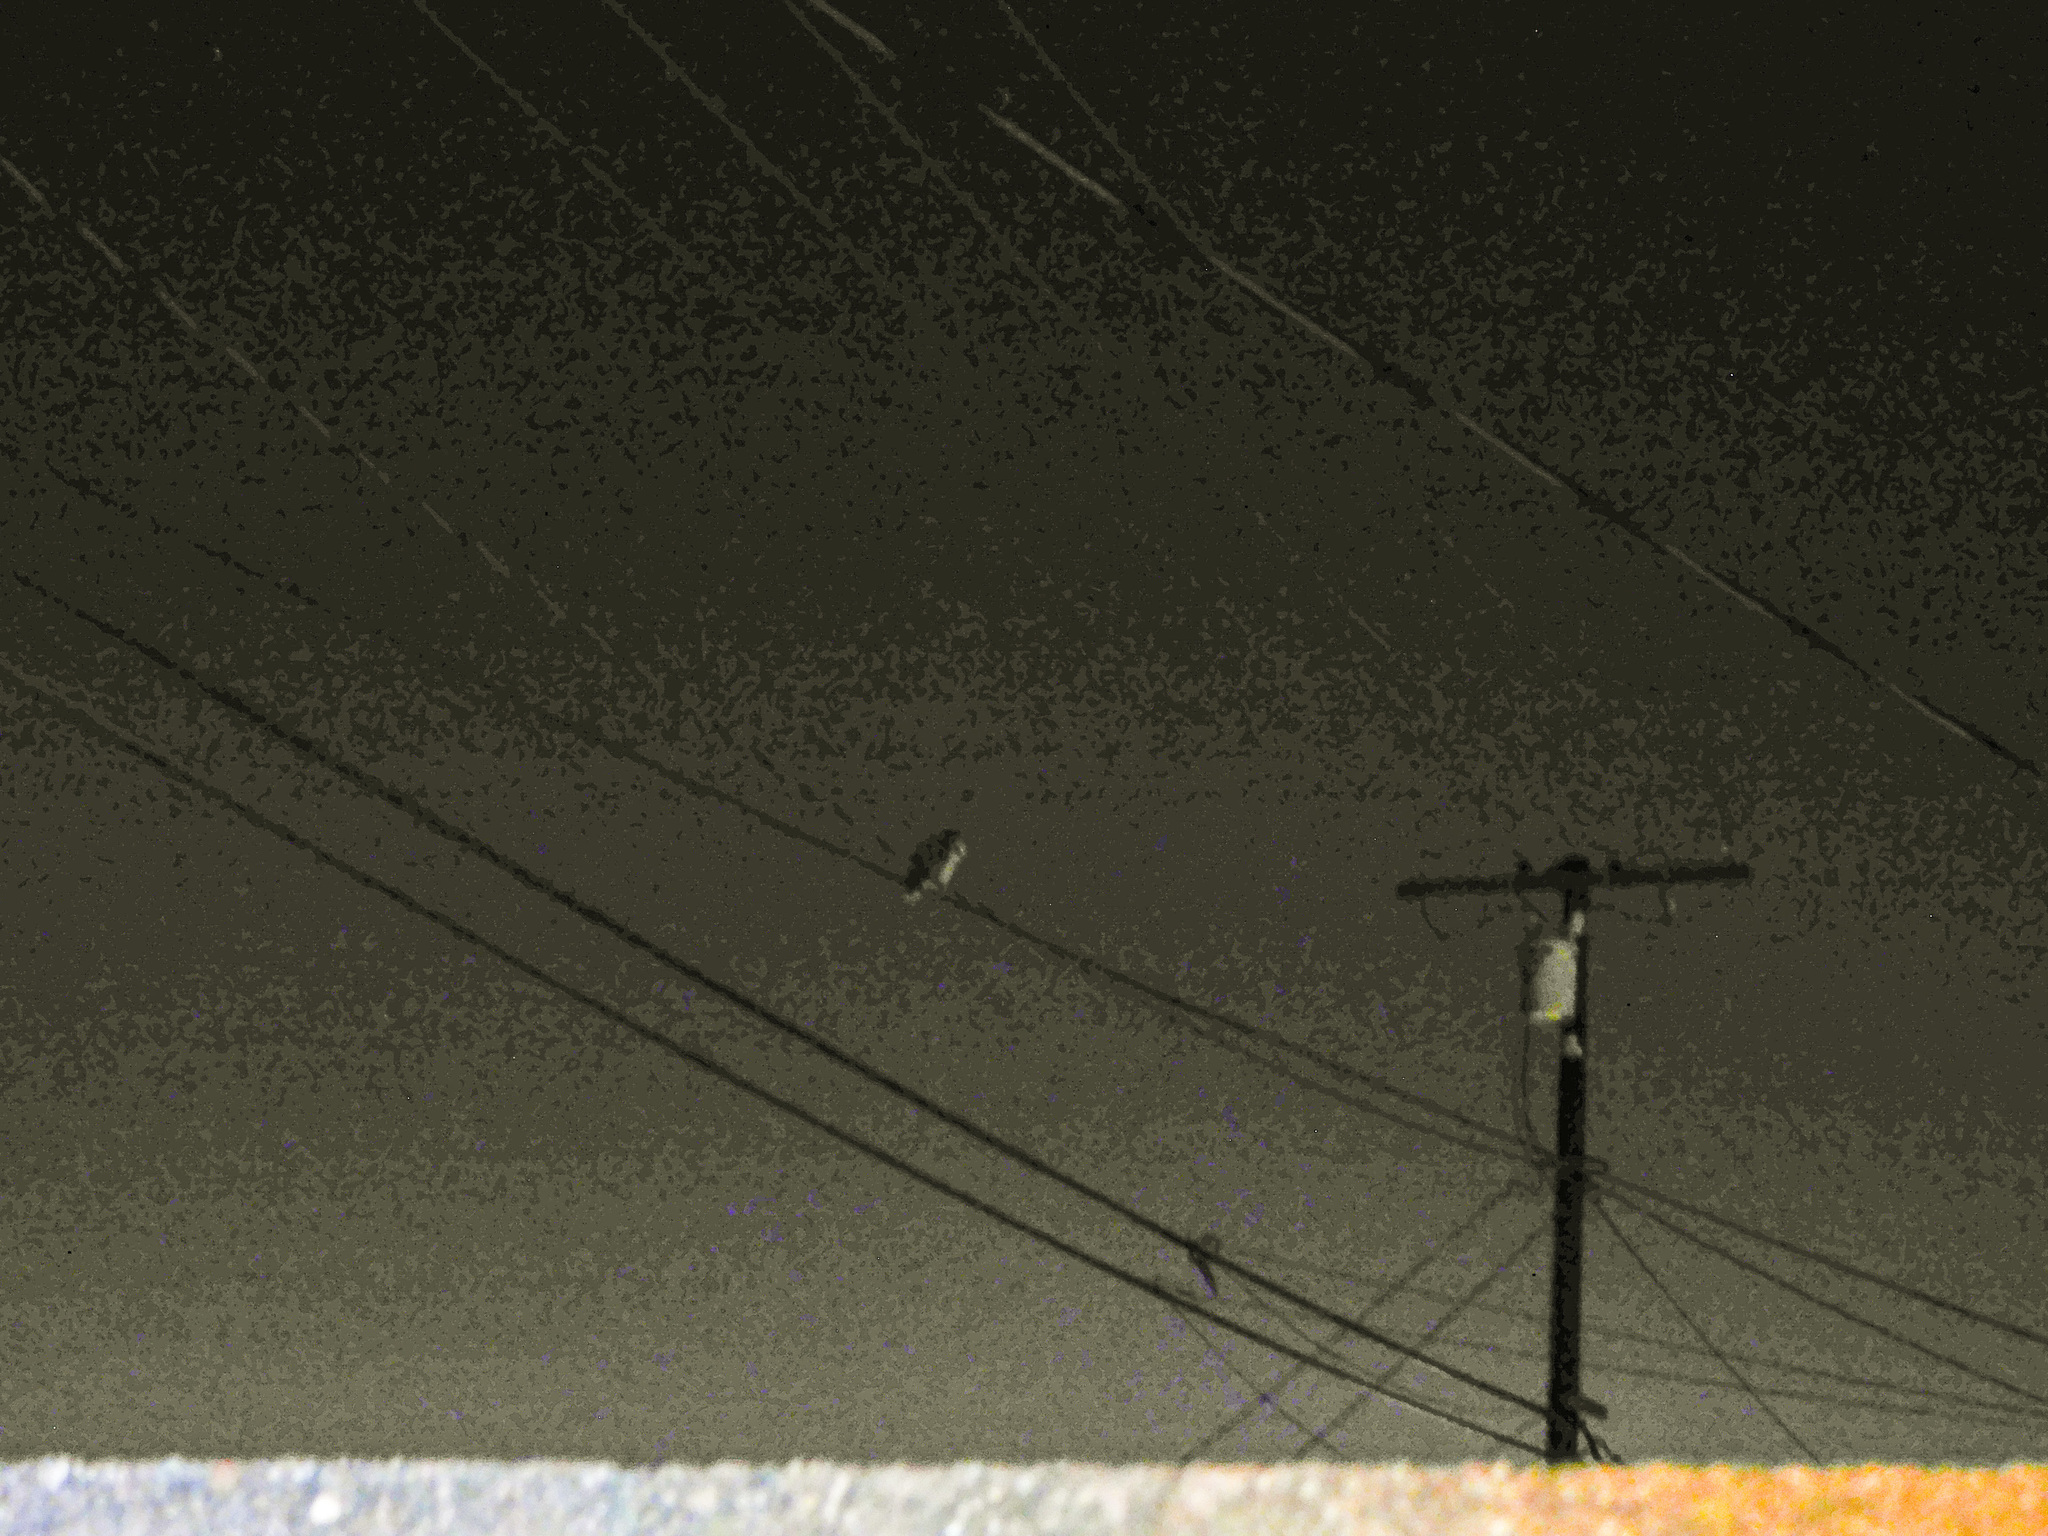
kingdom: Animalia
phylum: Chordata
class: Aves
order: Strigiformes
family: Strigidae
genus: Bubo
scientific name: Bubo virginianus
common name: Great horned owl
